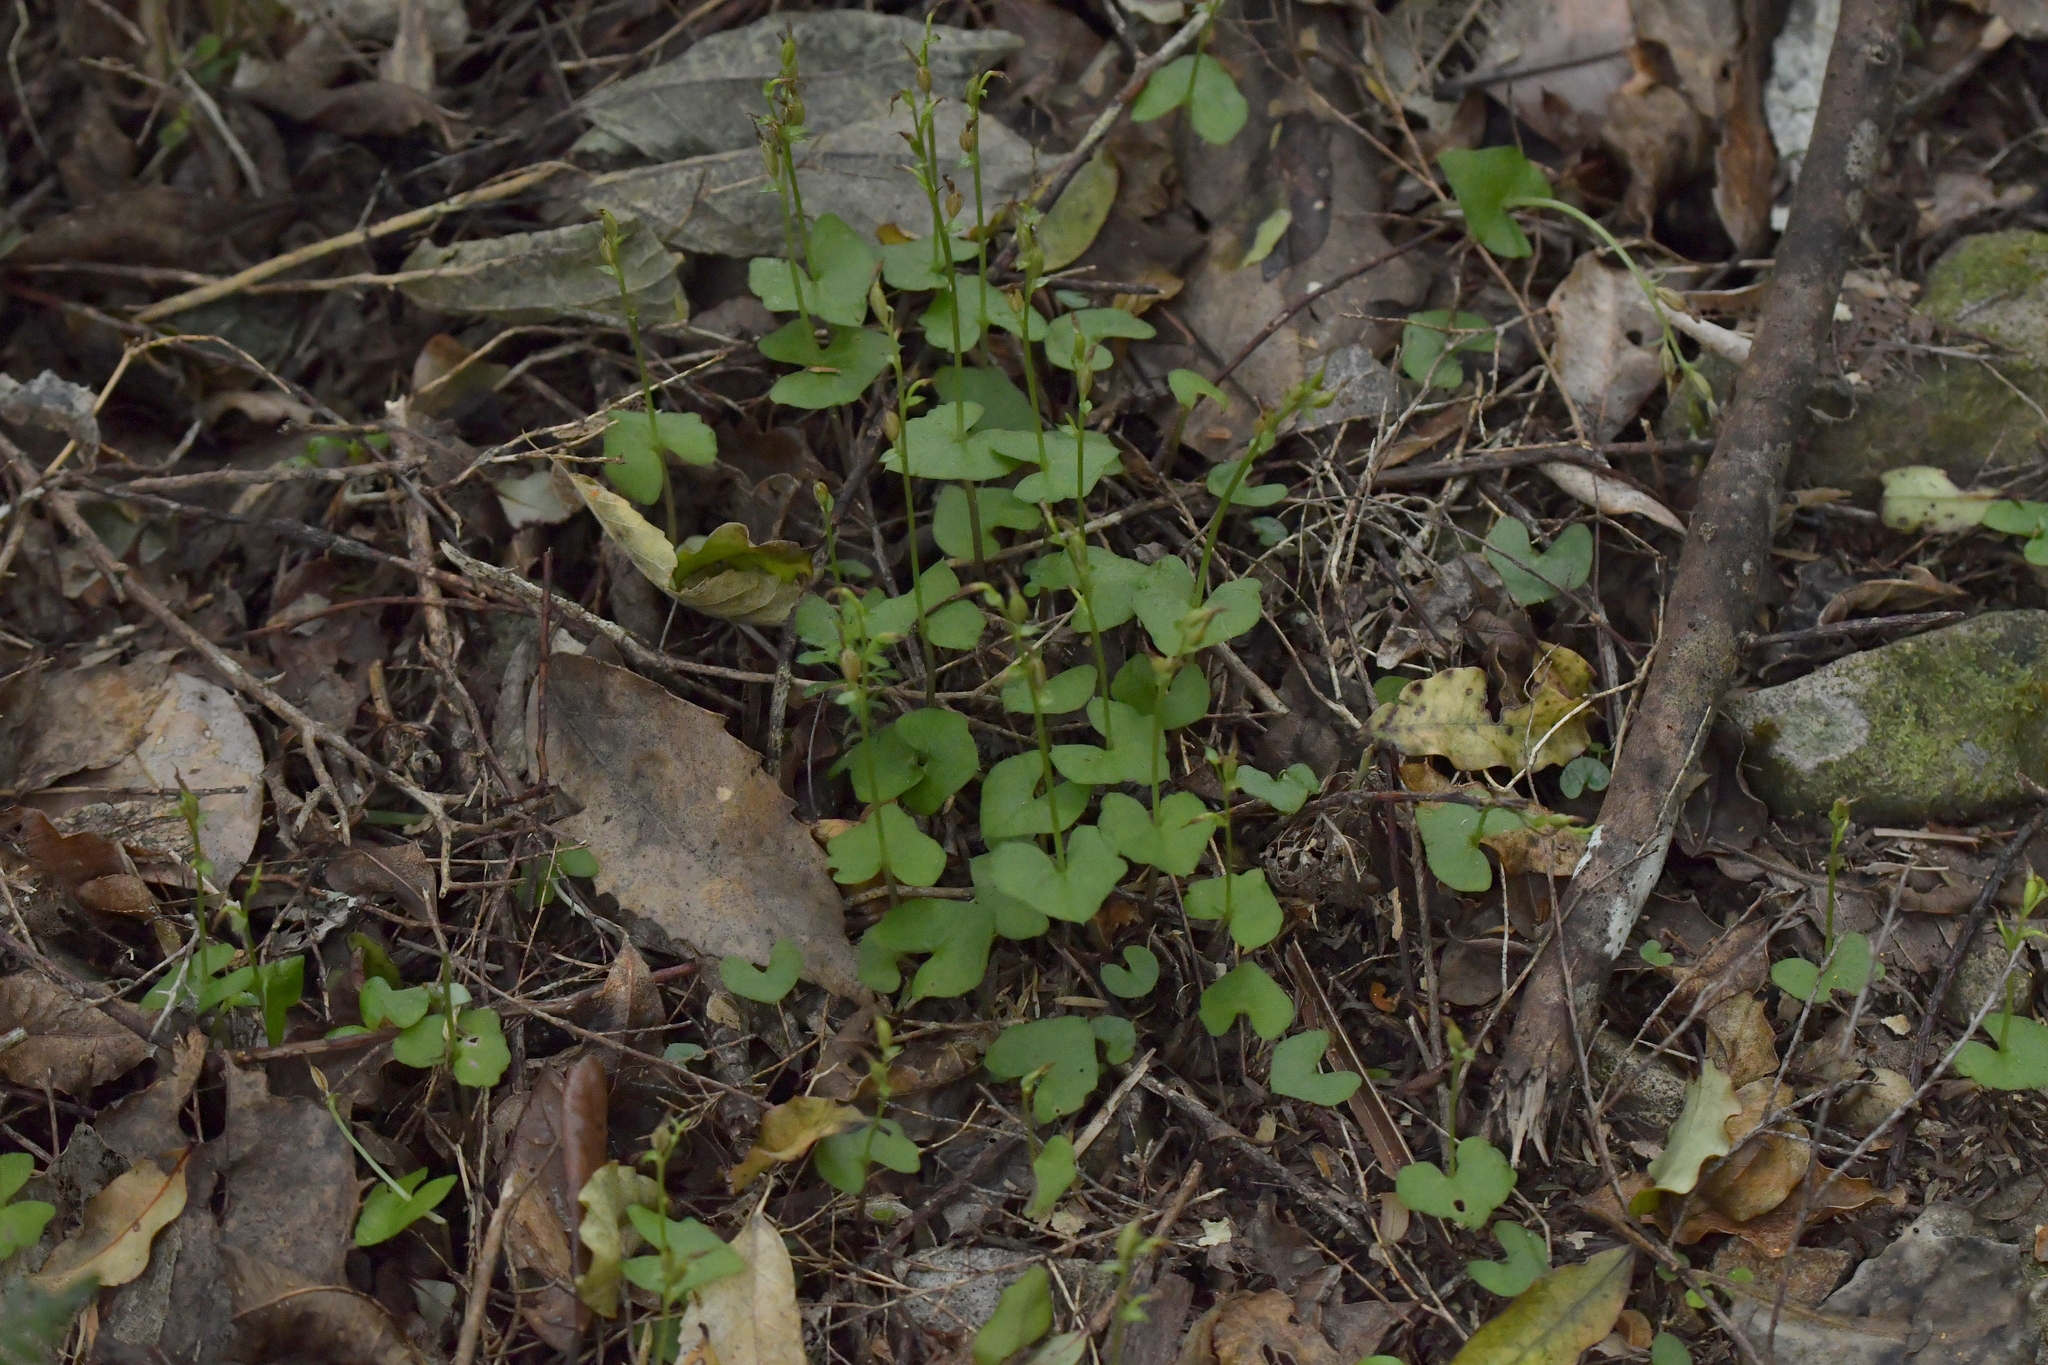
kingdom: Plantae
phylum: Tracheophyta
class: Liliopsida
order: Asparagales
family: Orchidaceae
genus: Acianthus
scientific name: Acianthus sinclairii
